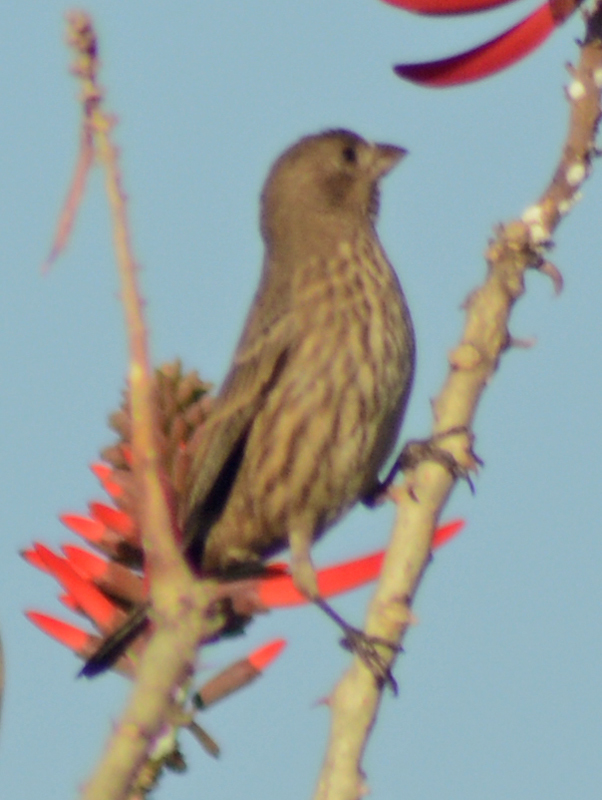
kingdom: Animalia
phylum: Chordata
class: Aves
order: Passeriformes
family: Fringillidae
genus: Haemorhous
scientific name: Haemorhous mexicanus
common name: House finch
